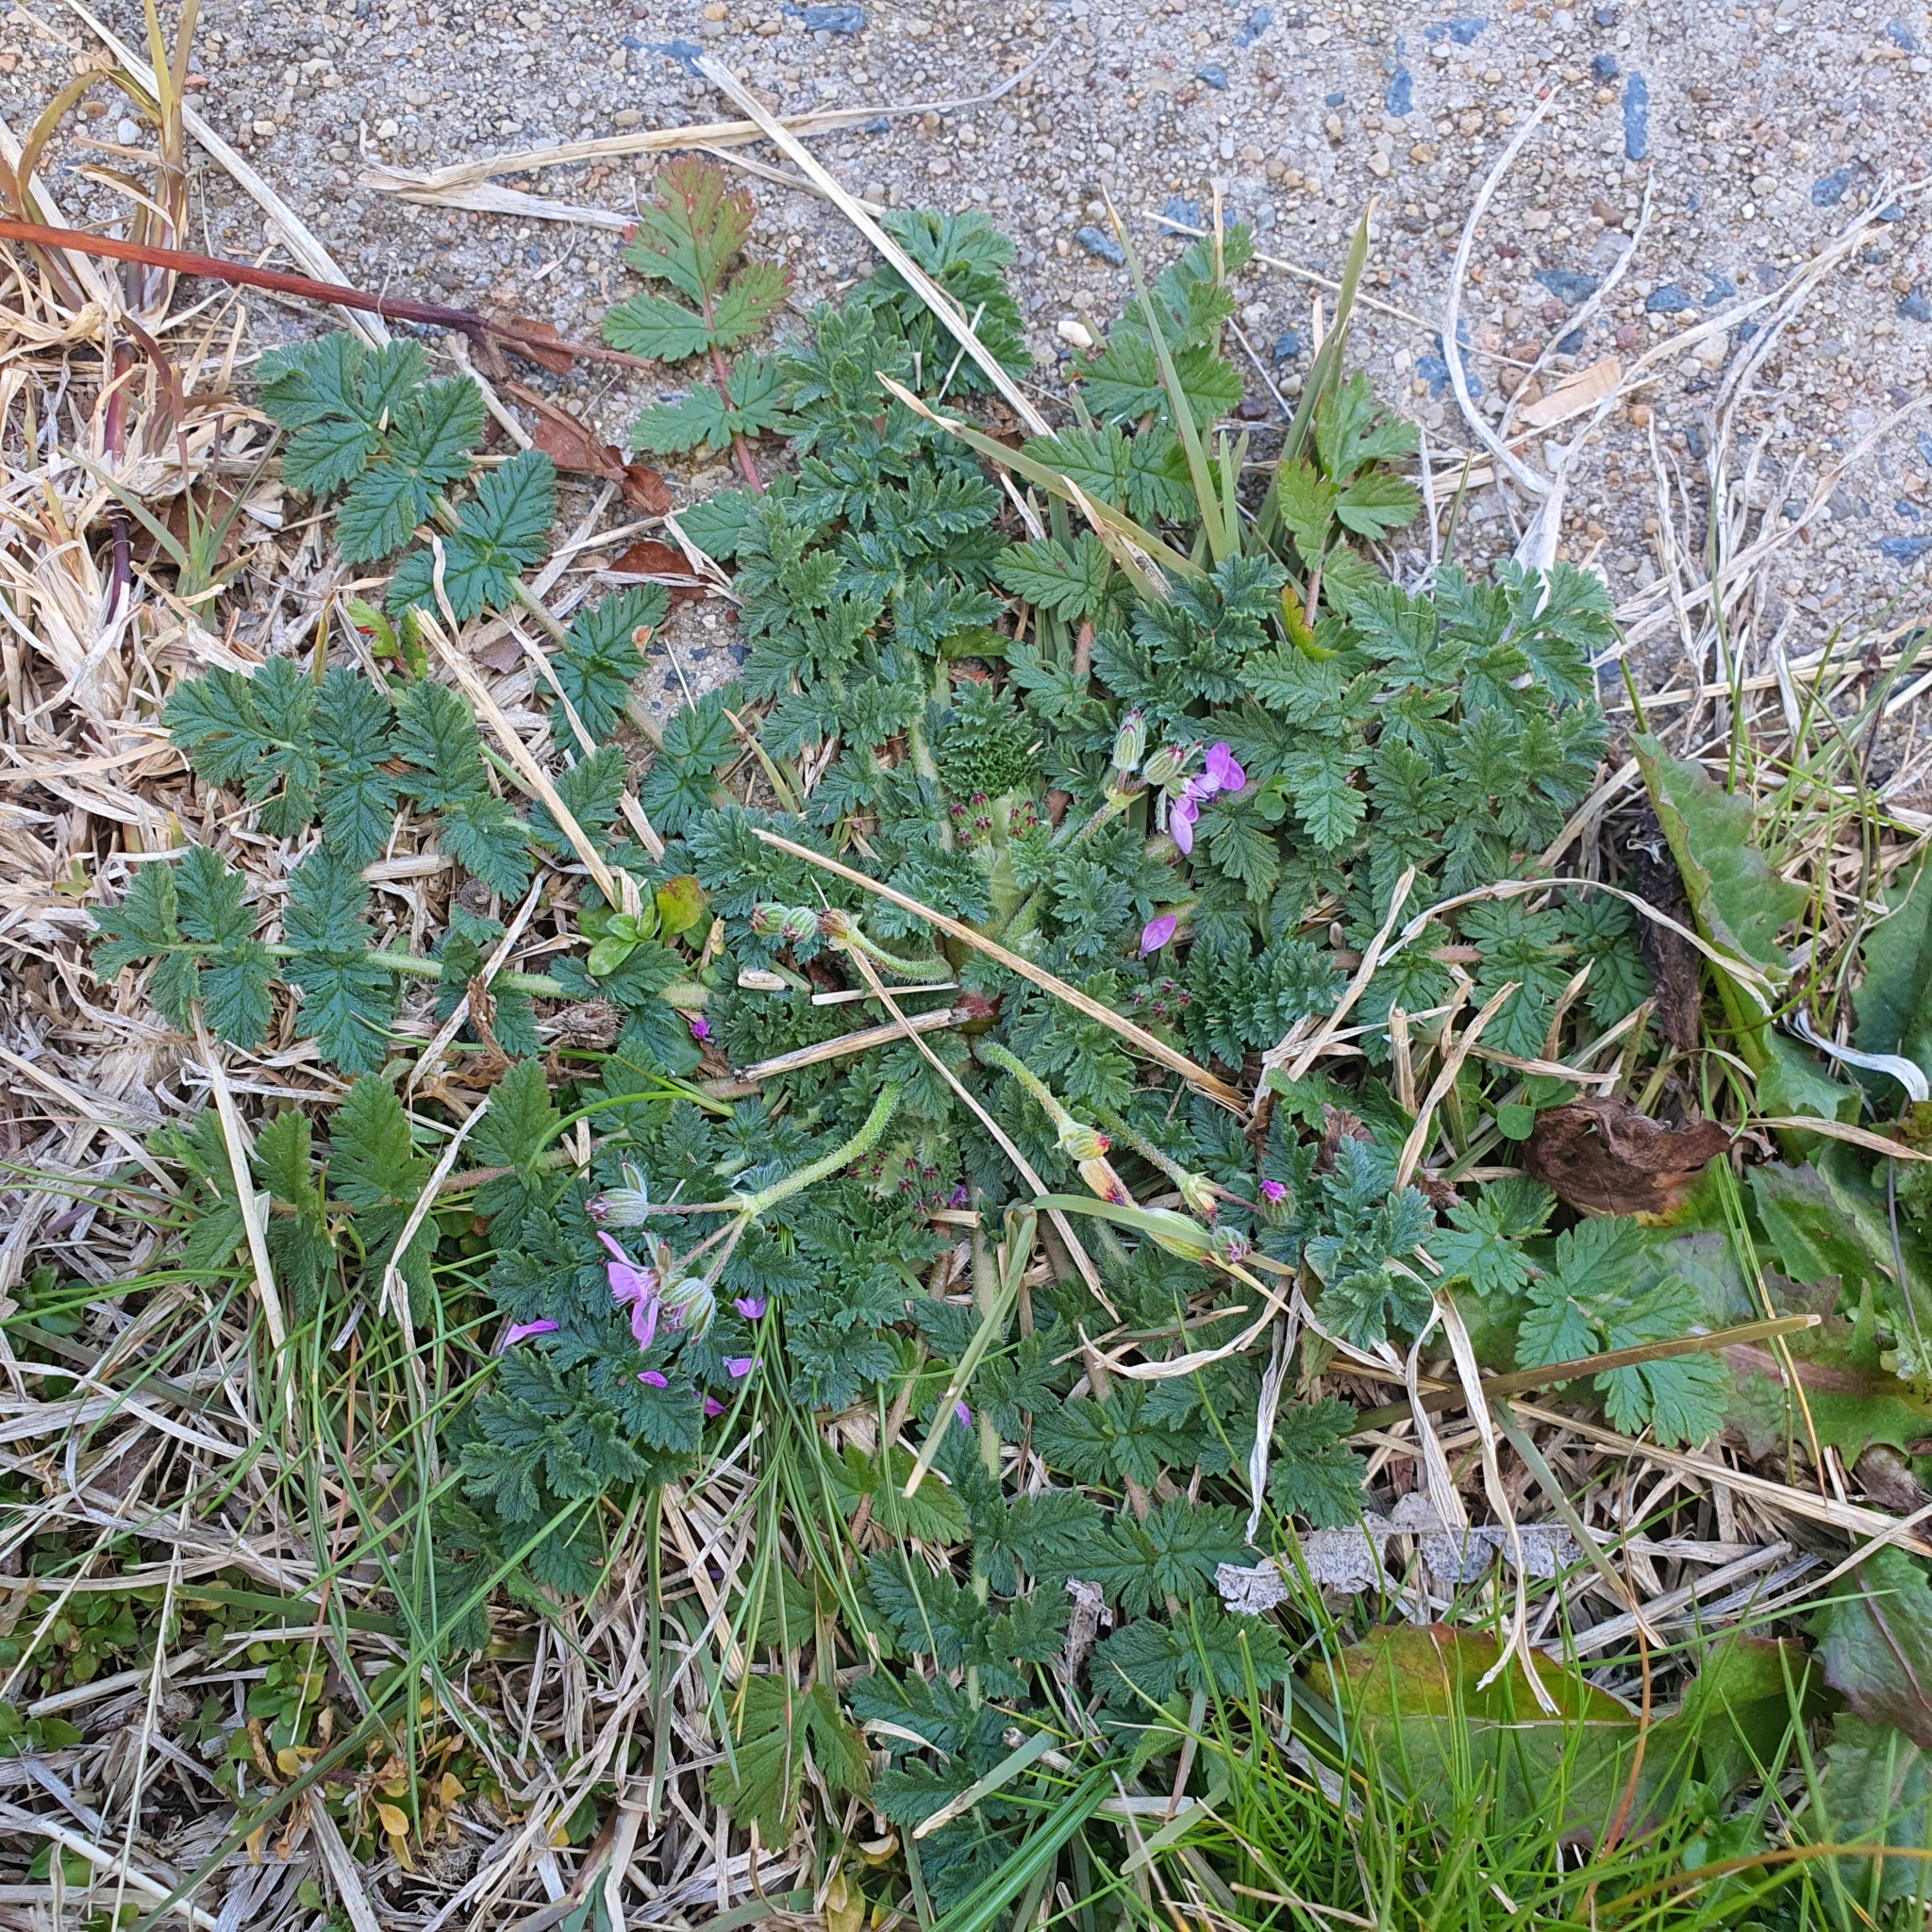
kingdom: Plantae
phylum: Tracheophyta
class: Magnoliopsida
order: Geraniales
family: Geraniaceae
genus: Erodium
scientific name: Erodium cicutarium
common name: Common stork's-bill
